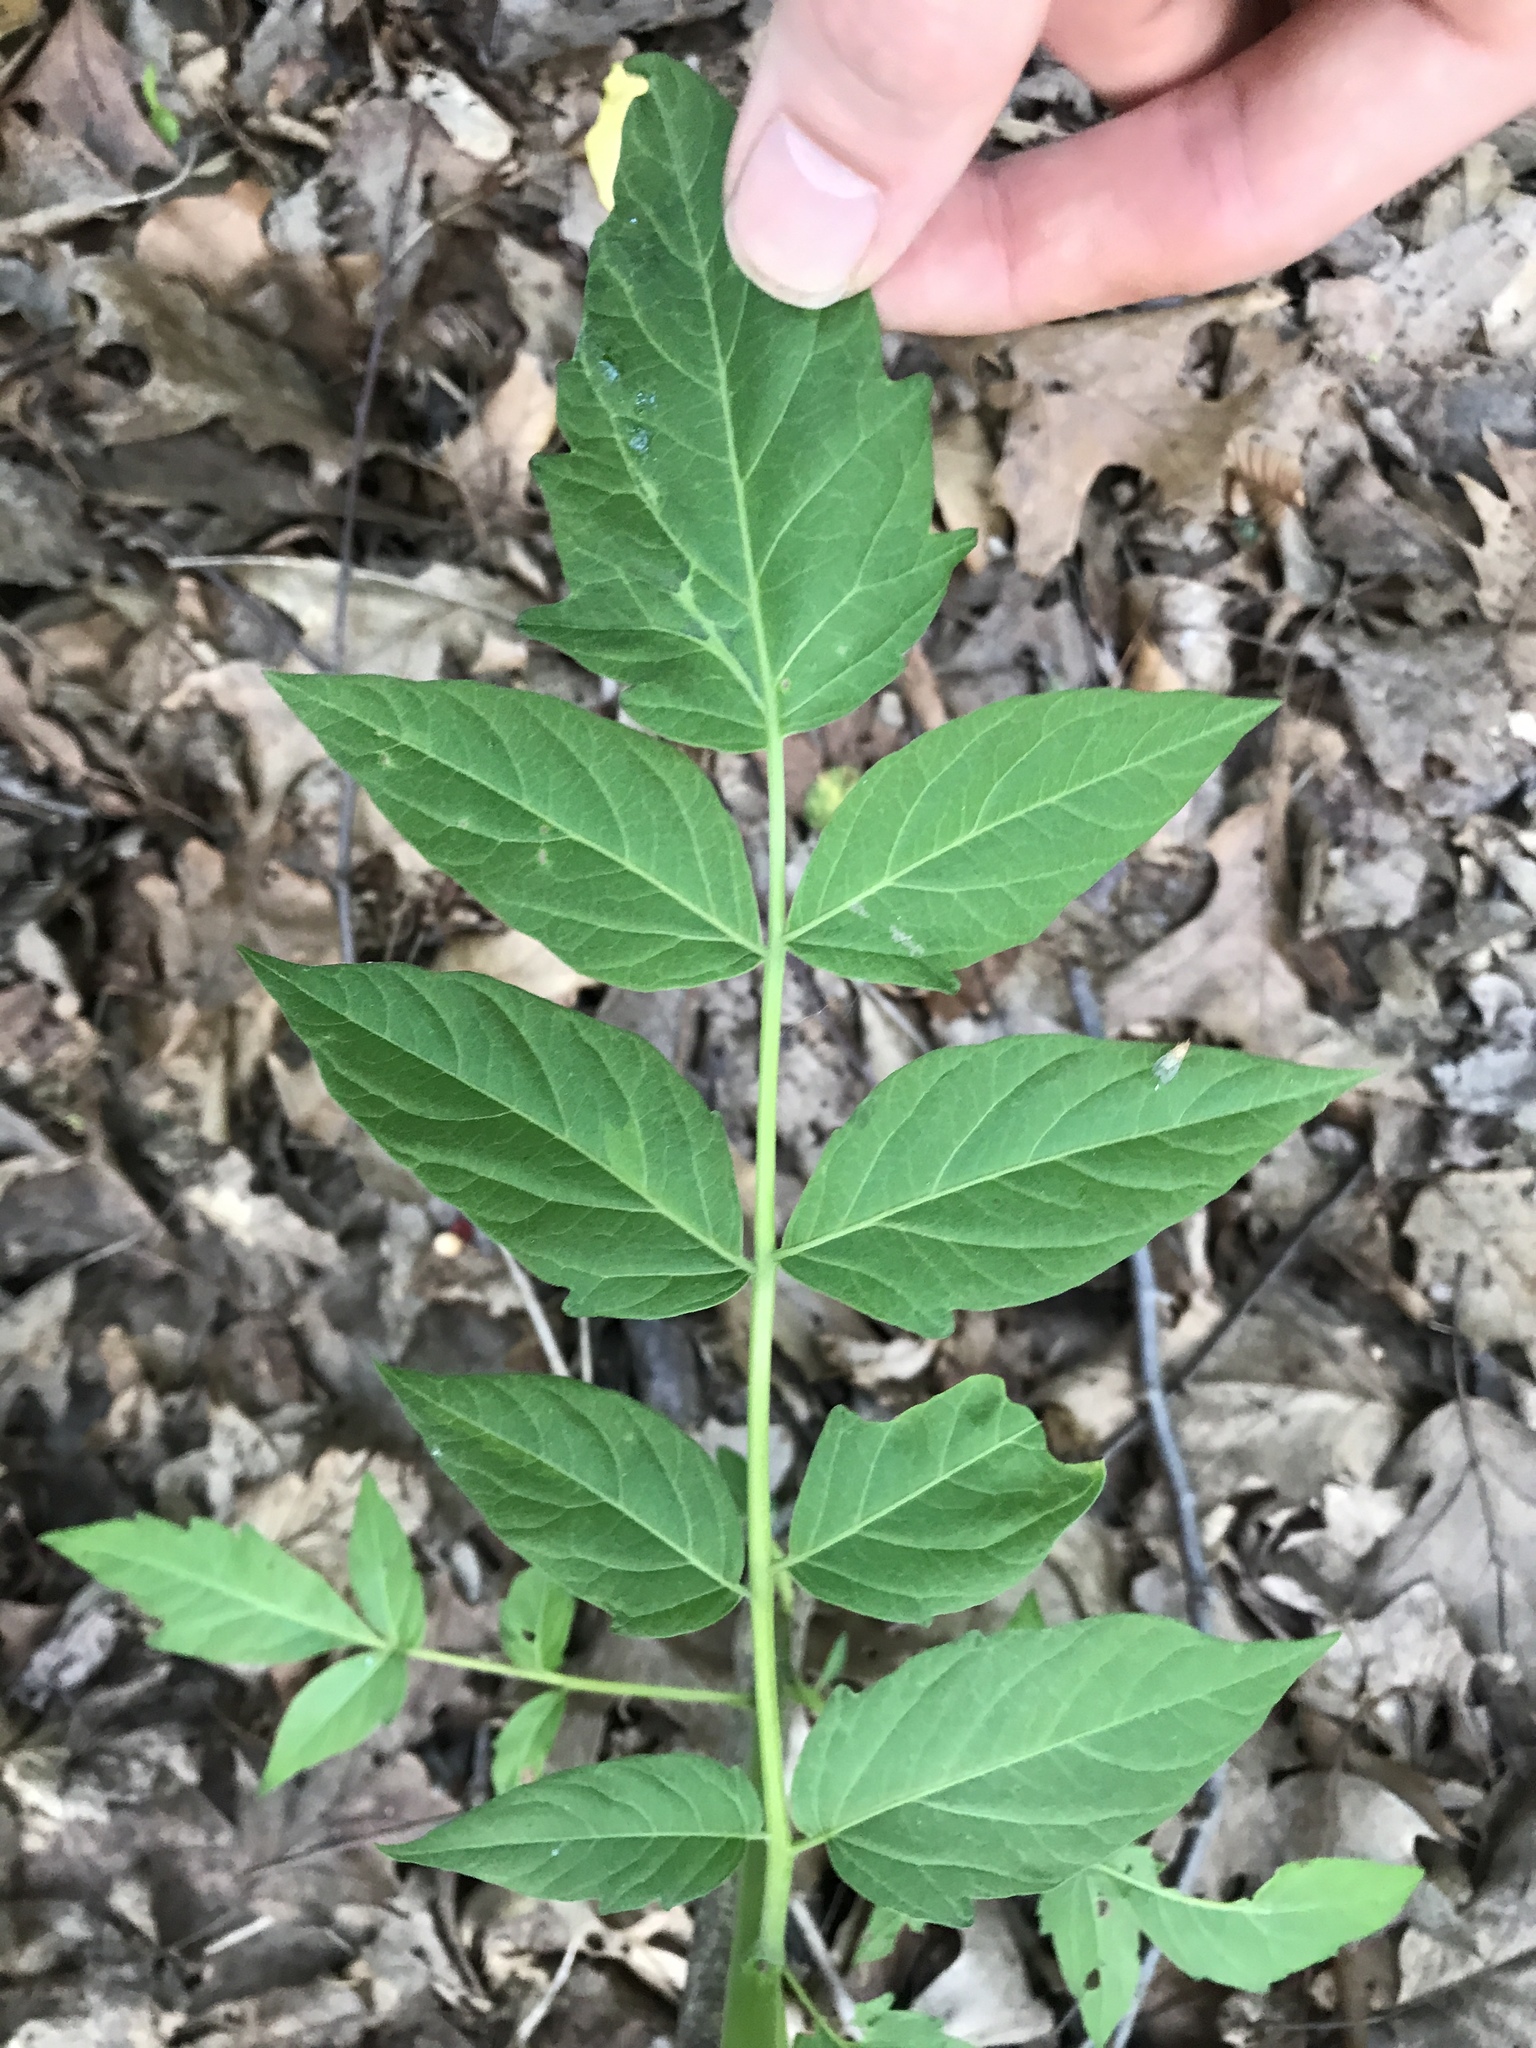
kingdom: Plantae
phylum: Tracheophyta
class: Magnoliopsida
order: Sapindales
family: Simaroubaceae
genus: Ailanthus
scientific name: Ailanthus altissima
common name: Tree-of-heaven
